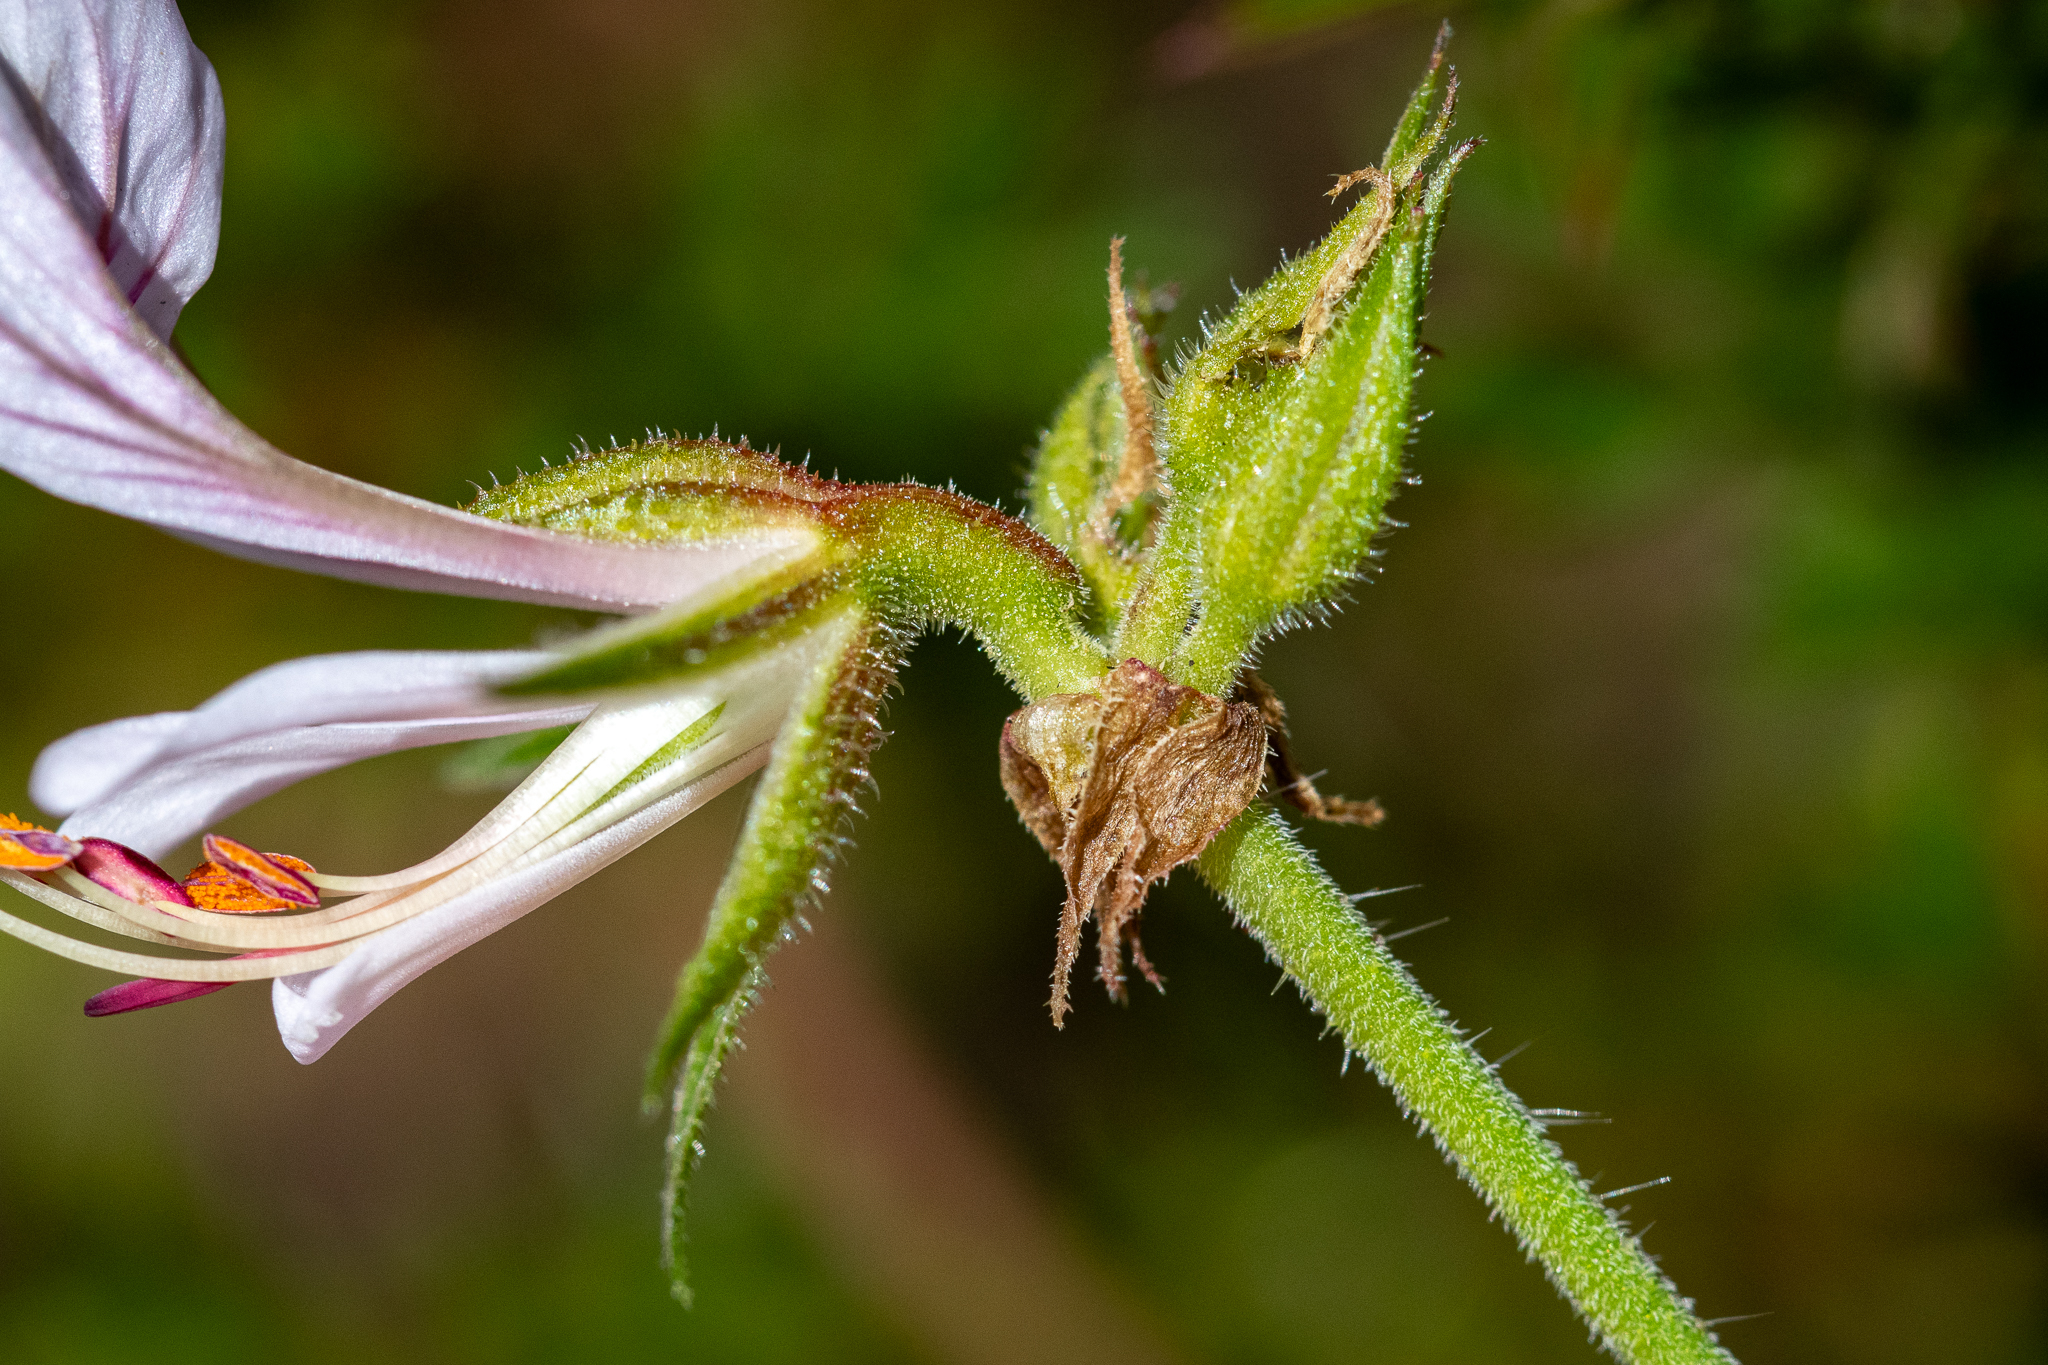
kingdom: Plantae
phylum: Tracheophyta
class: Magnoliopsida
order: Geraniales
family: Geraniaceae
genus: Pelargonium
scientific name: Pelargonium myrrhifolium
